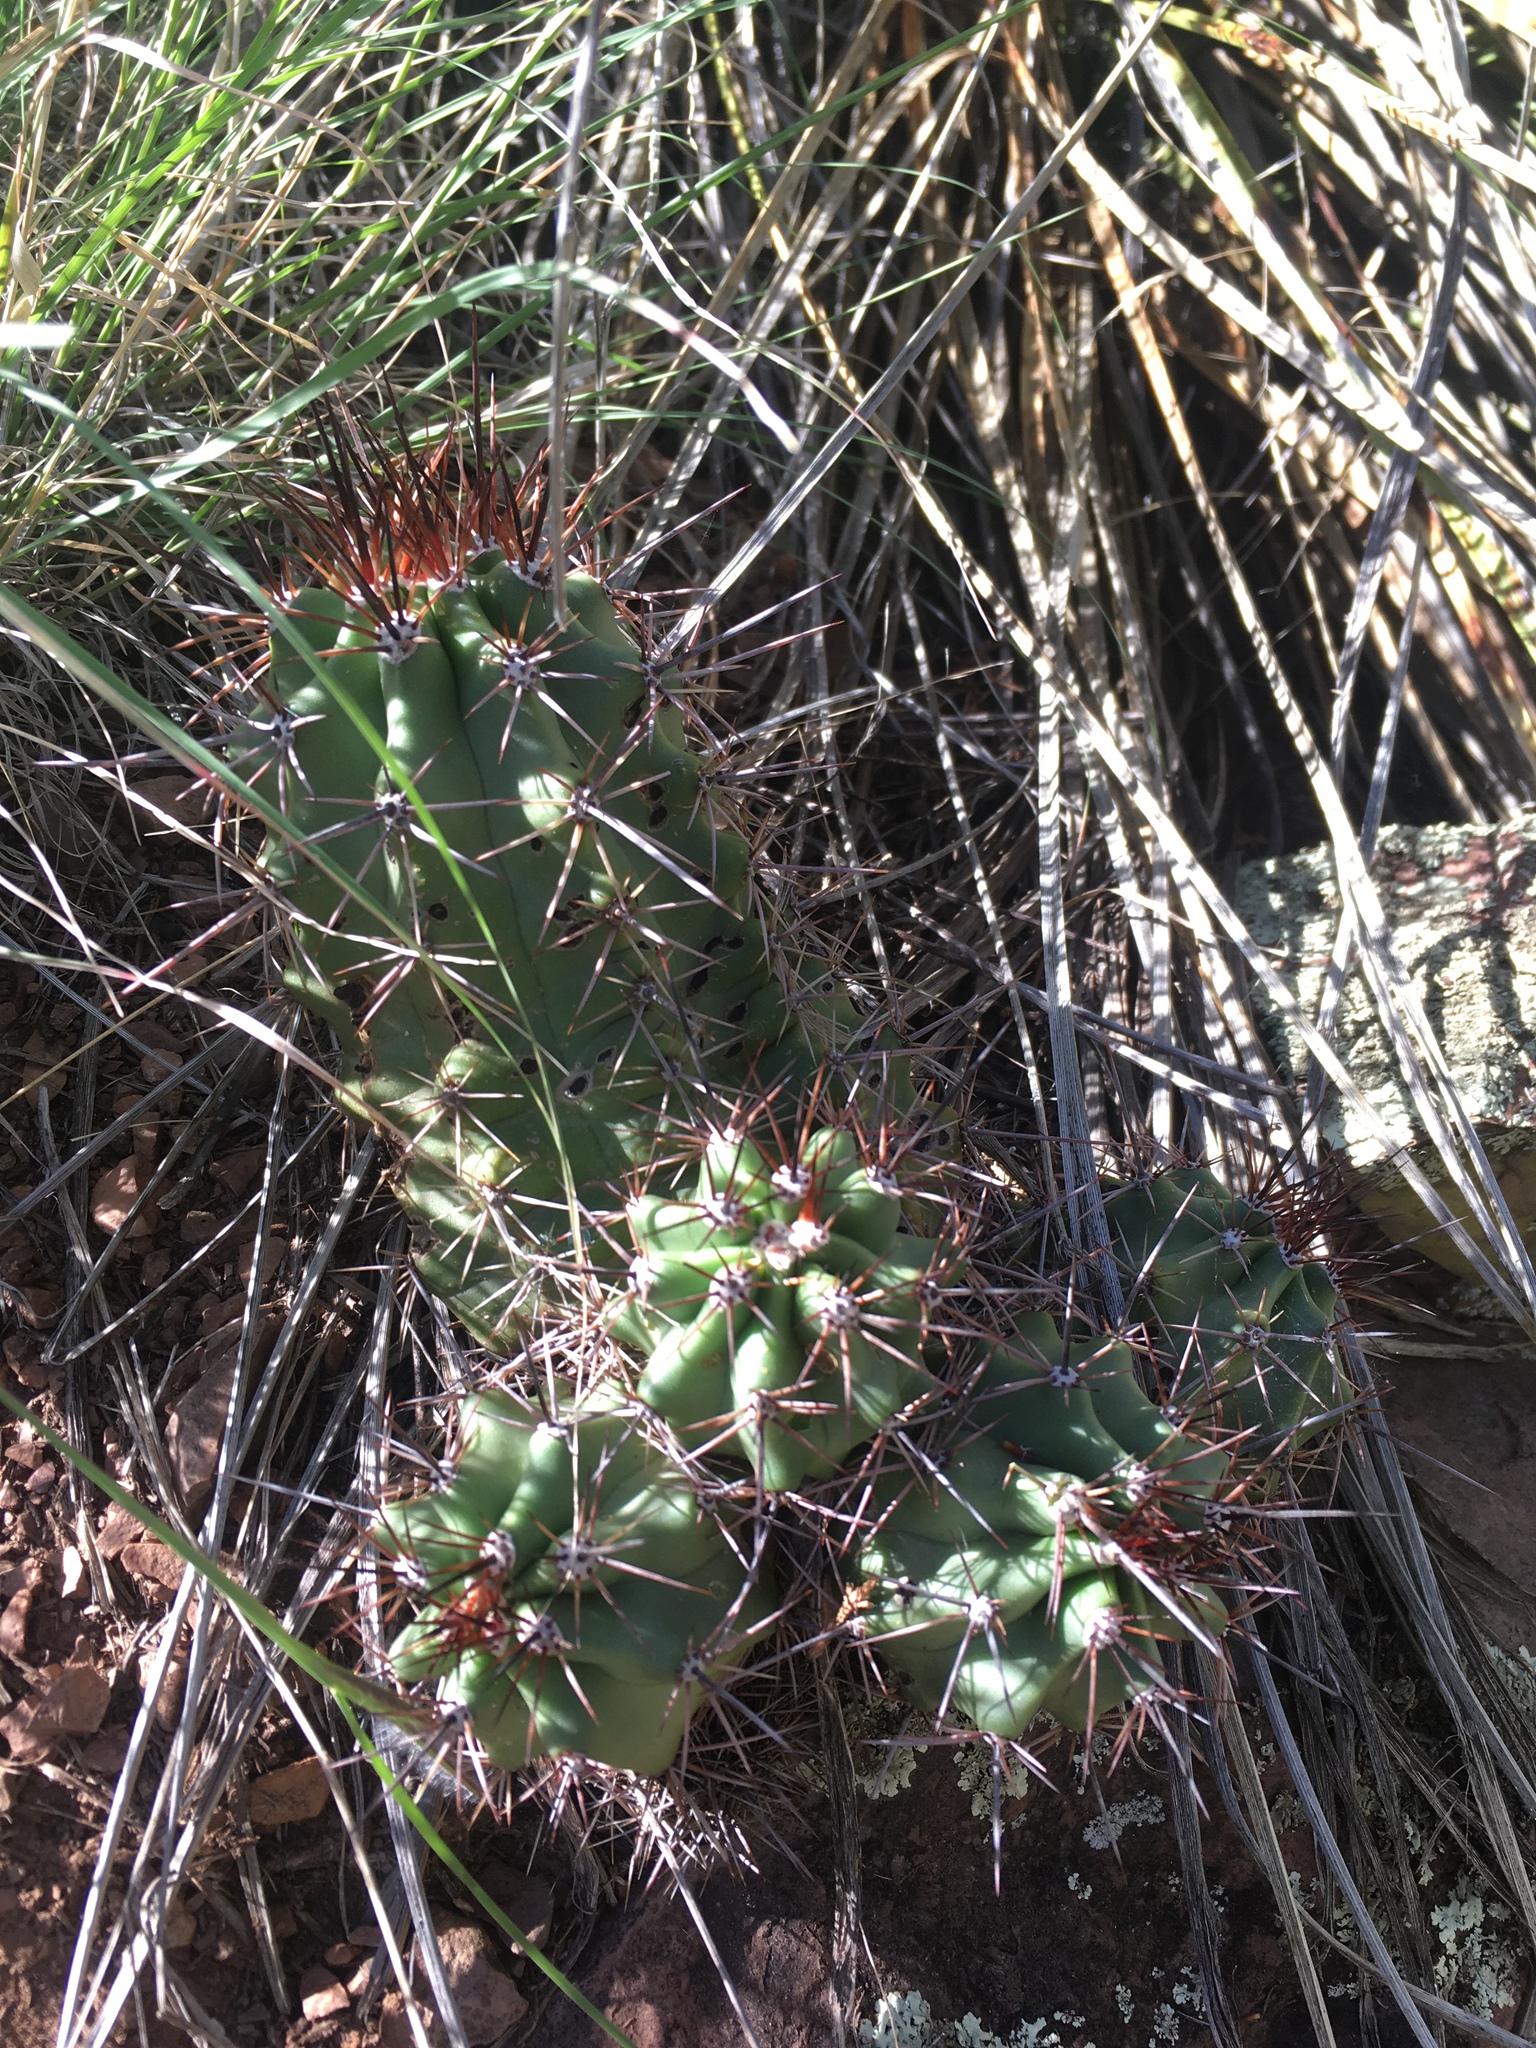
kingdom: Plantae
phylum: Tracheophyta
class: Magnoliopsida
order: Caryophyllales
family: Cactaceae
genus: Echinocereus
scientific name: Echinocereus arizonicus
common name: Arizona hedgehog cactus
